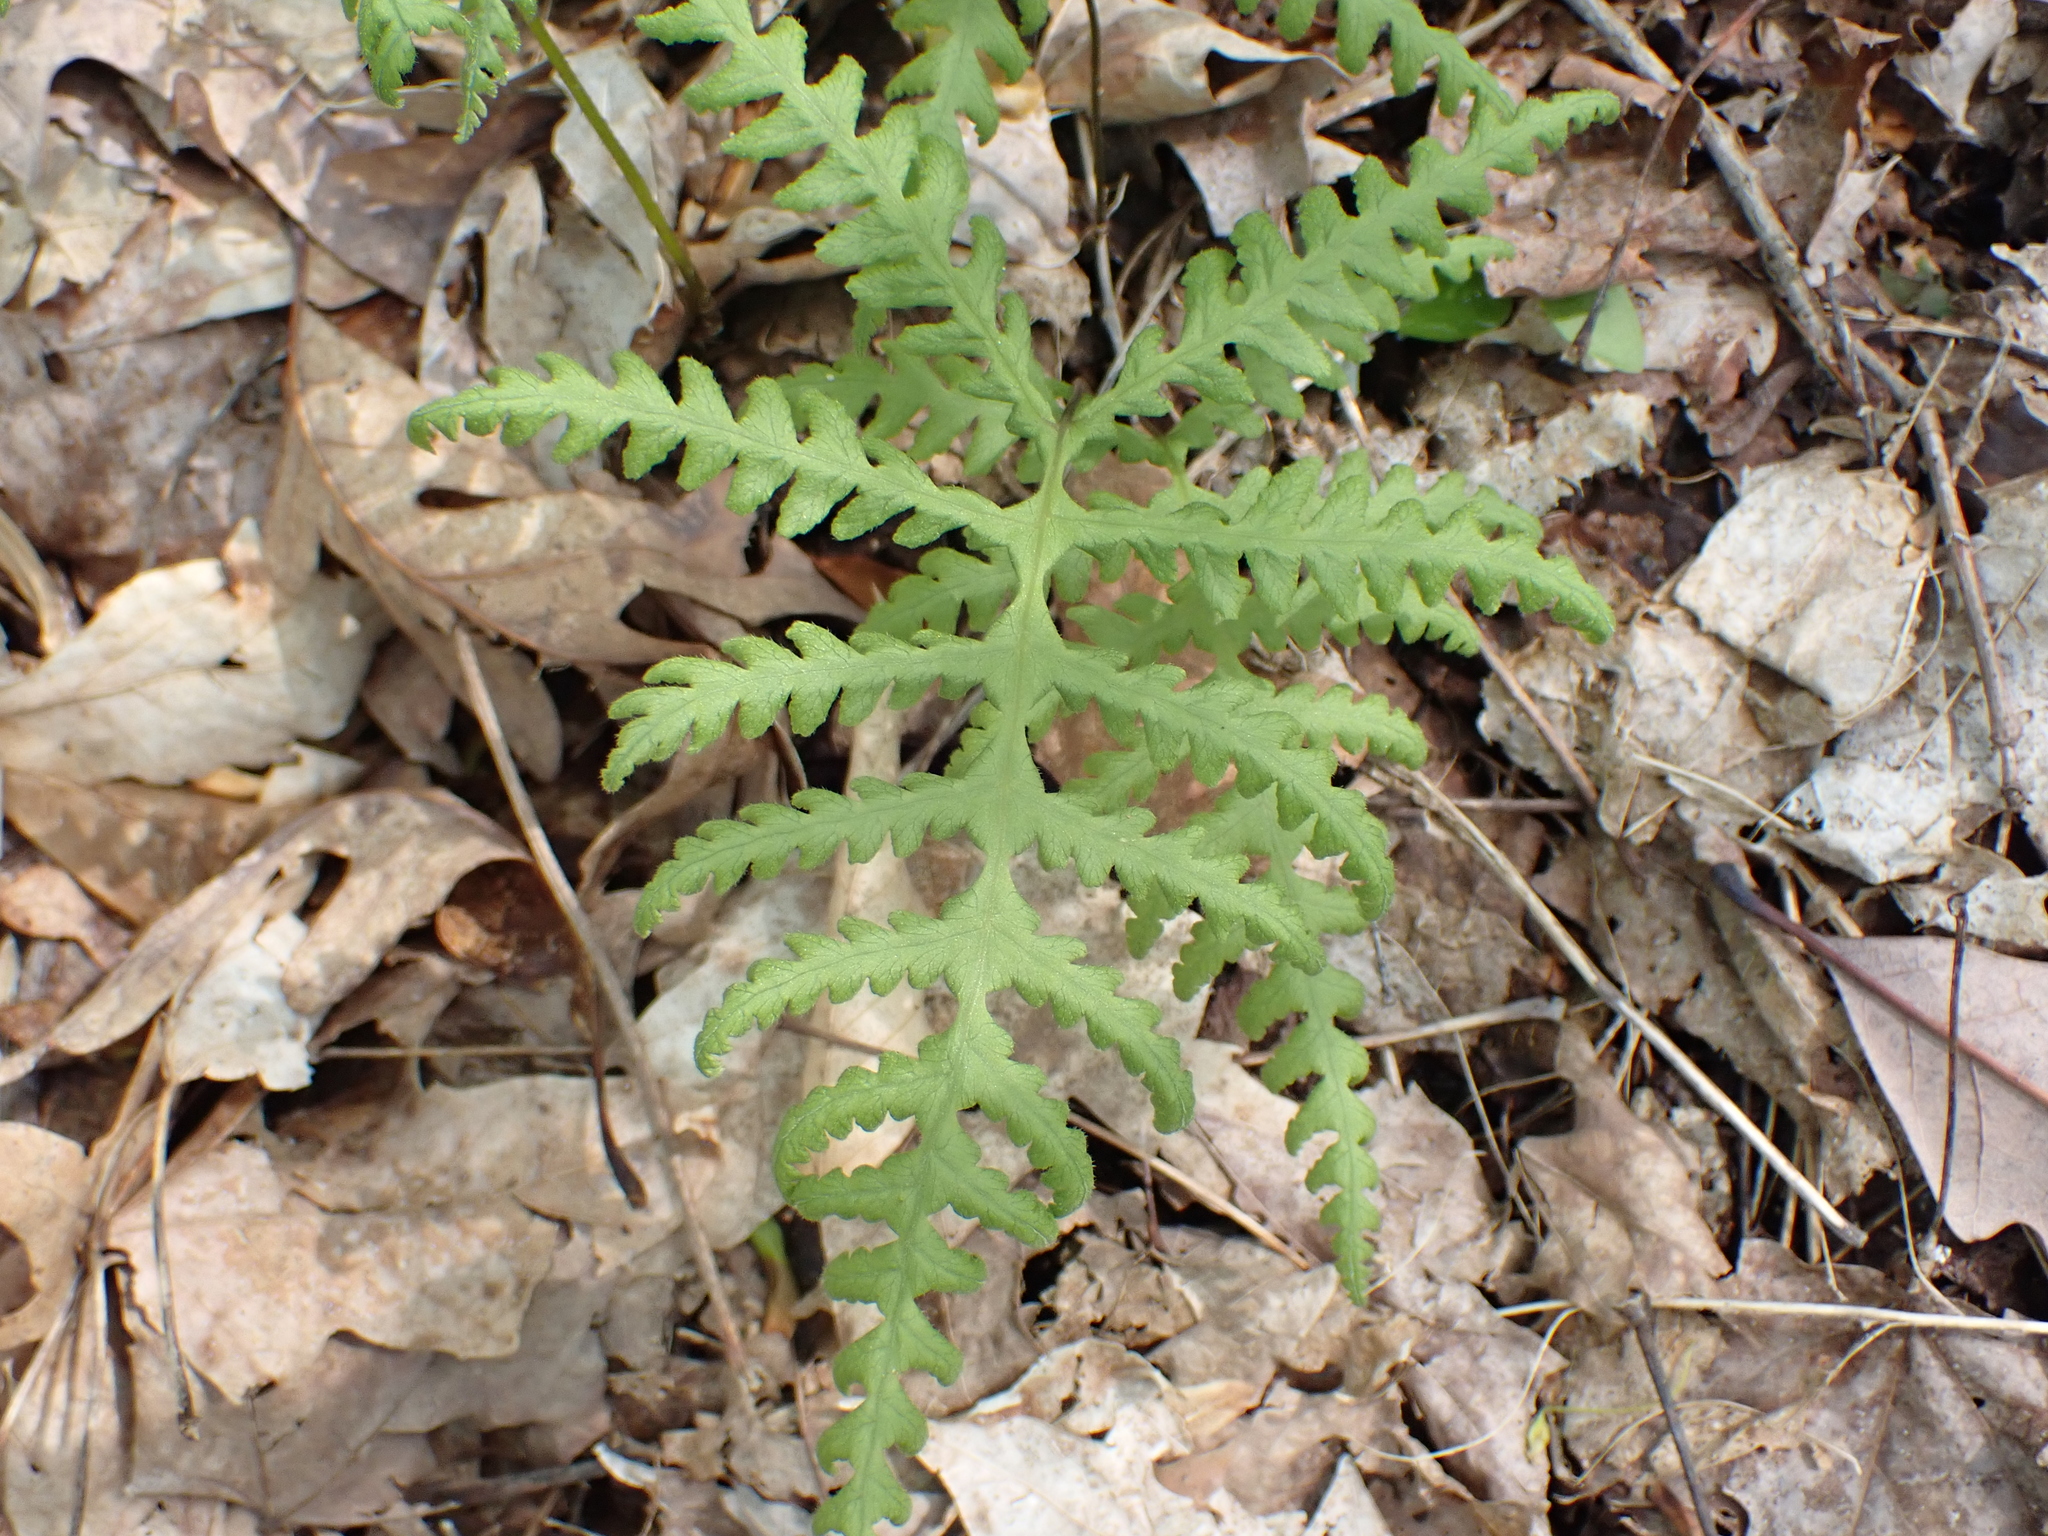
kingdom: Plantae
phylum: Tracheophyta
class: Polypodiopsida
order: Polypodiales
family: Thelypteridaceae
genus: Phegopteris
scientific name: Phegopteris hexagonoptera
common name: Broad beech fern
